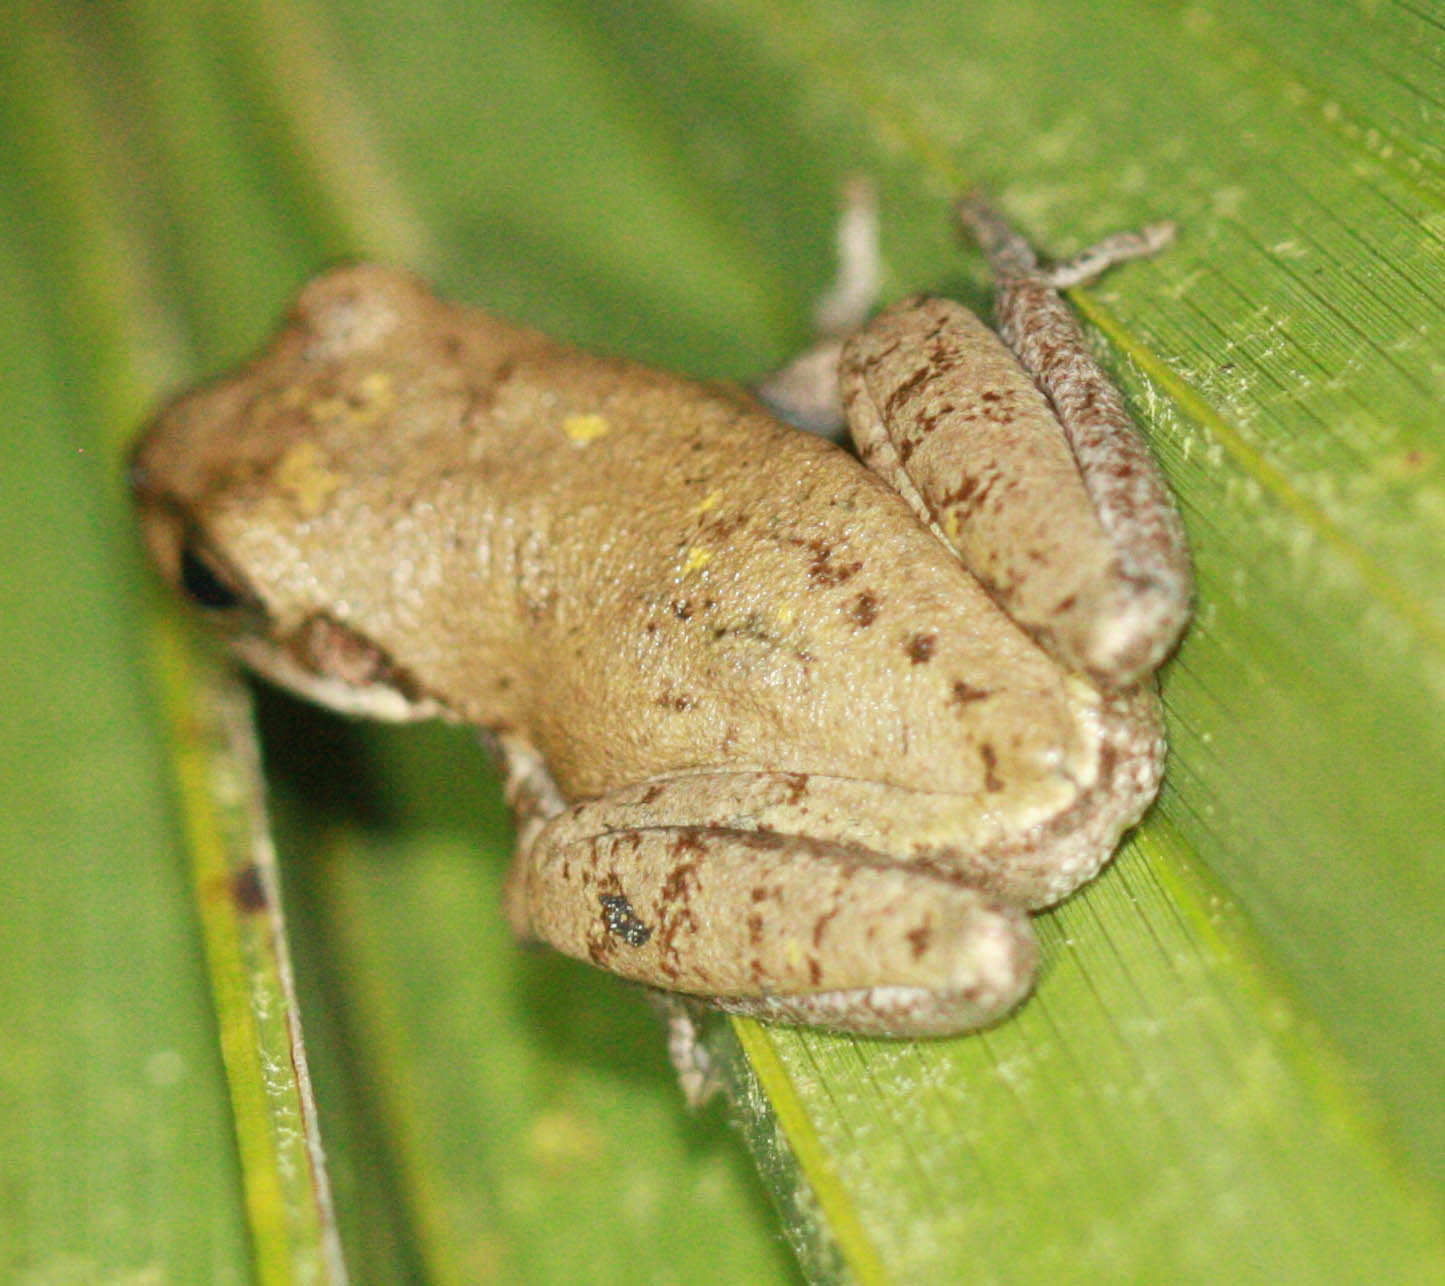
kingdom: Animalia
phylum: Chordata
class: Amphibia
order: Anura
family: Hylidae
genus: Dryophytes
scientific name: Dryophytes squirellus
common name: Squirrel treefrog
